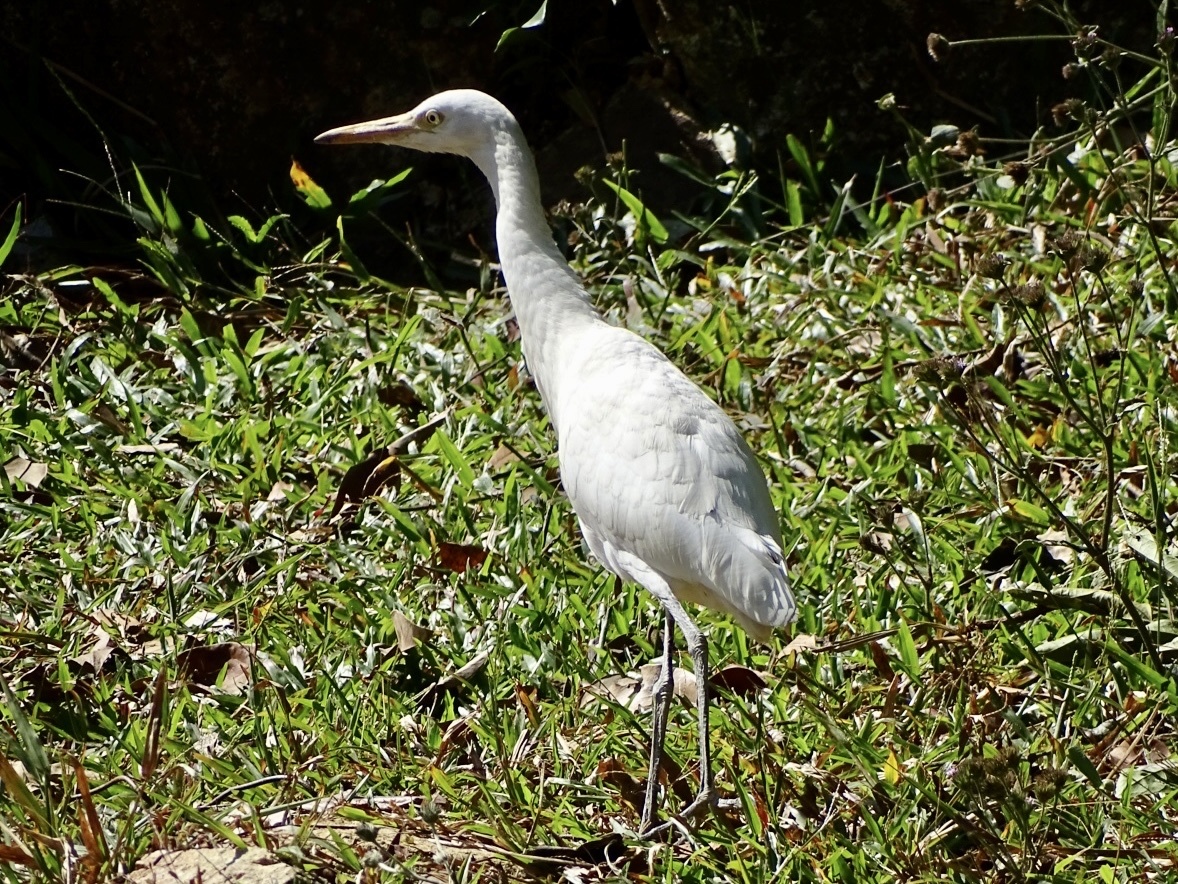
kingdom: Animalia
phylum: Chordata
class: Aves
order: Pelecaniformes
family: Ardeidae
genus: Bubulcus
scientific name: Bubulcus coromandus
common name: Eastern cattle egret
